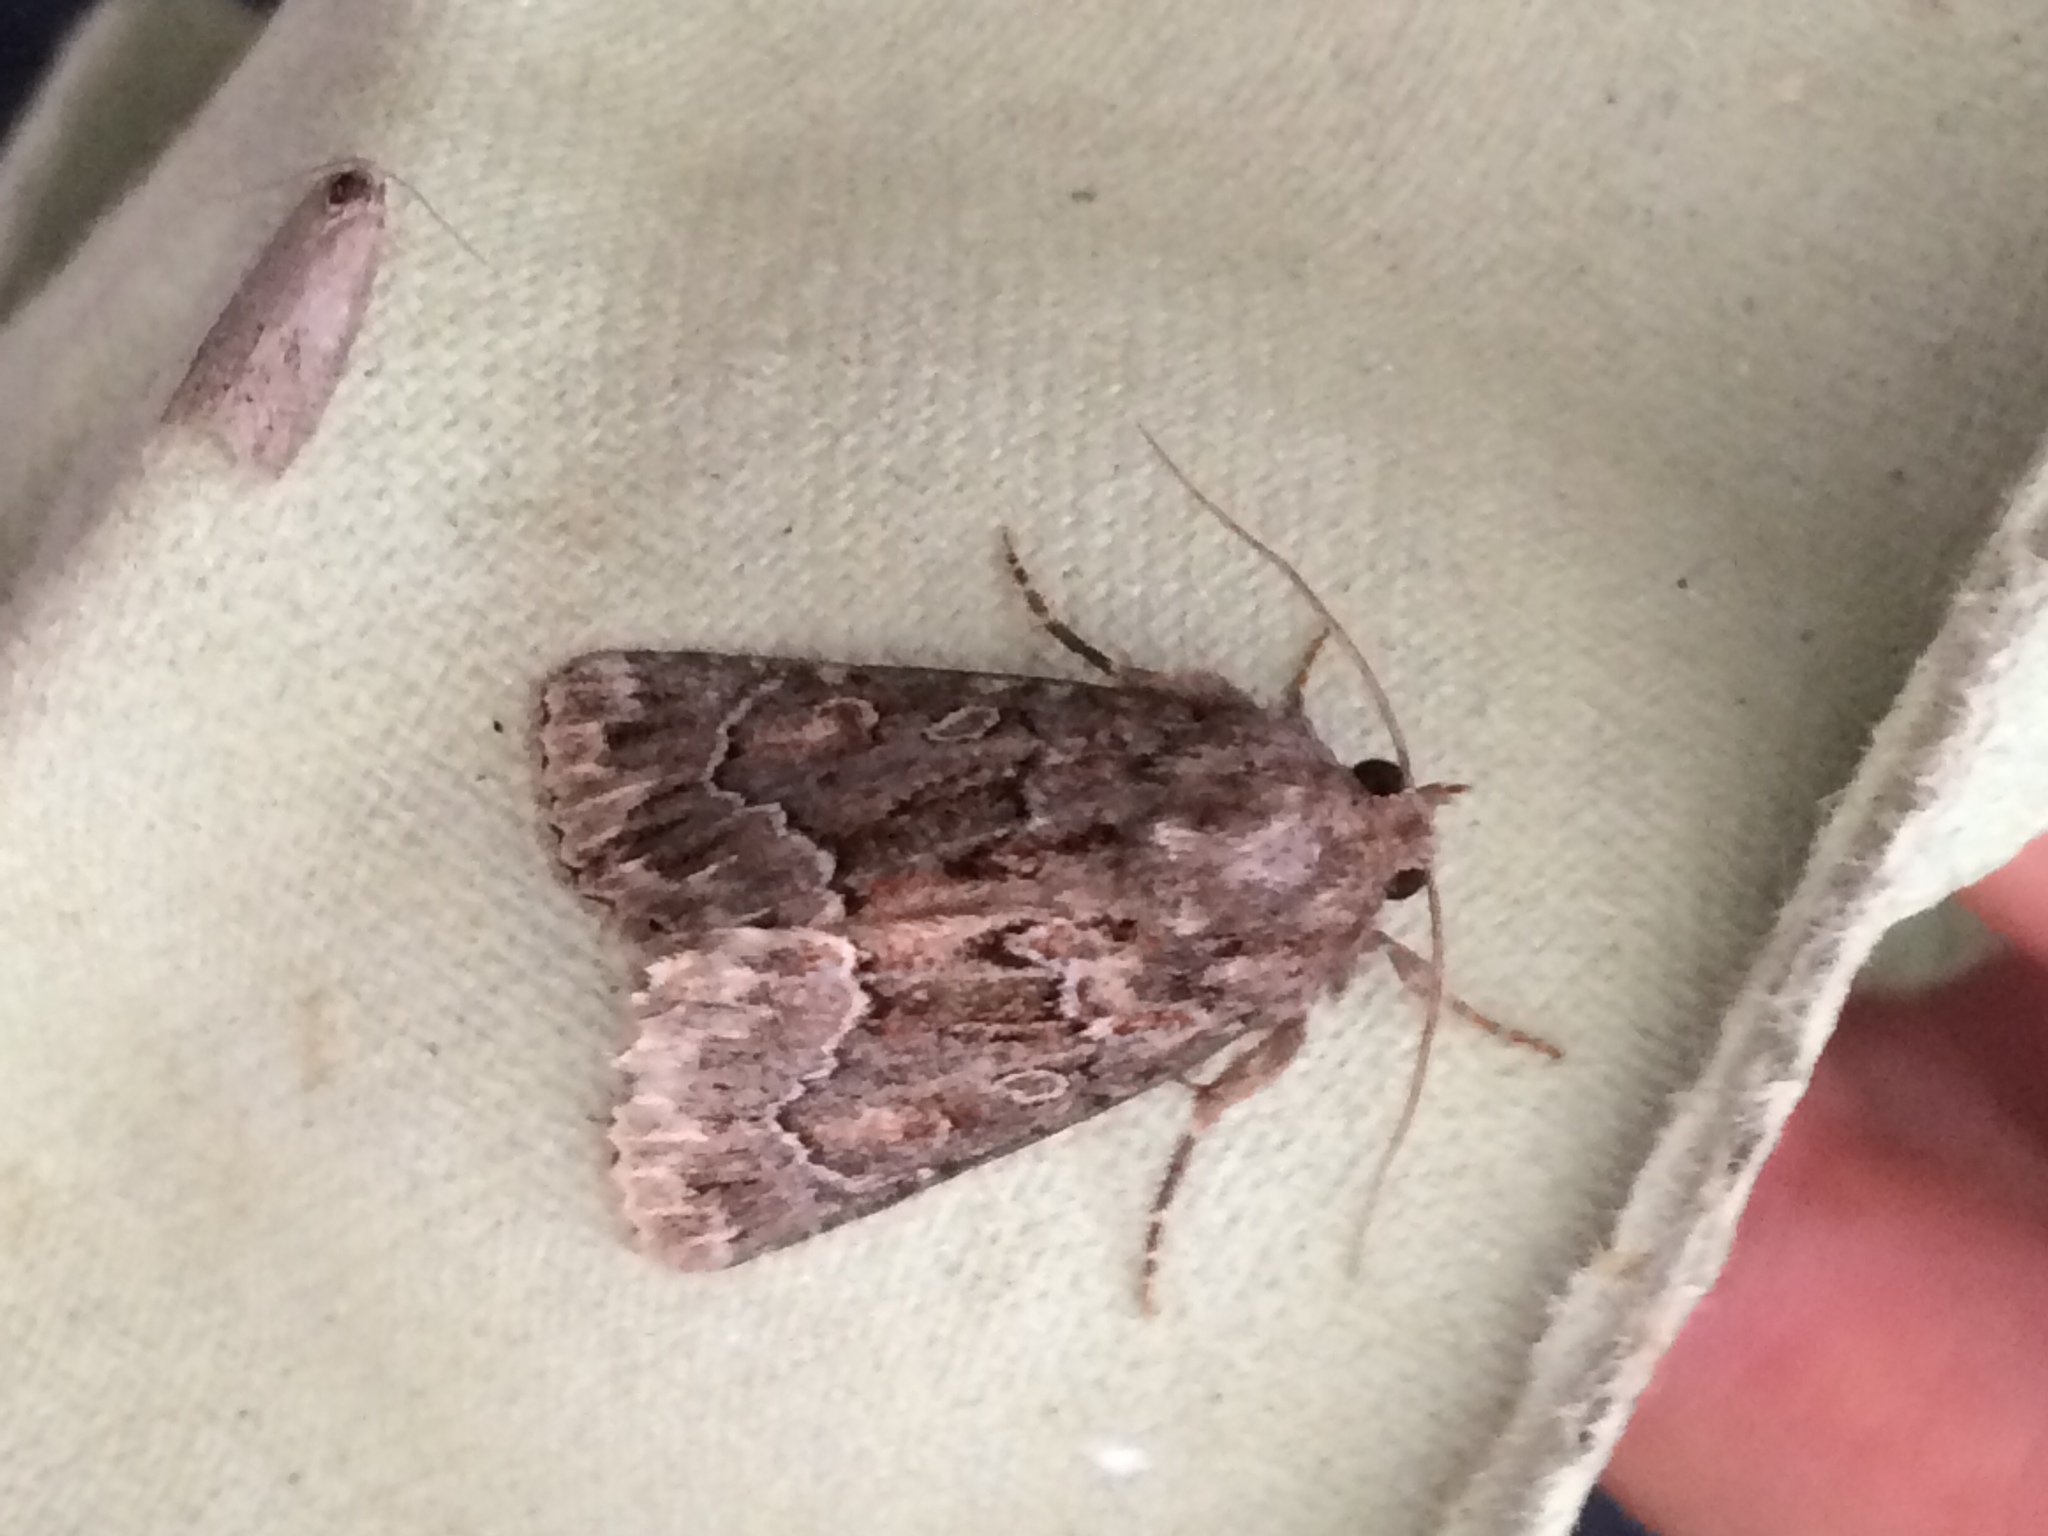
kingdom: Animalia
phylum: Arthropoda
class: Insecta
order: Lepidoptera
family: Noctuidae
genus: Thalpophila
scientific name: Thalpophila matura
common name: Straw underwing
